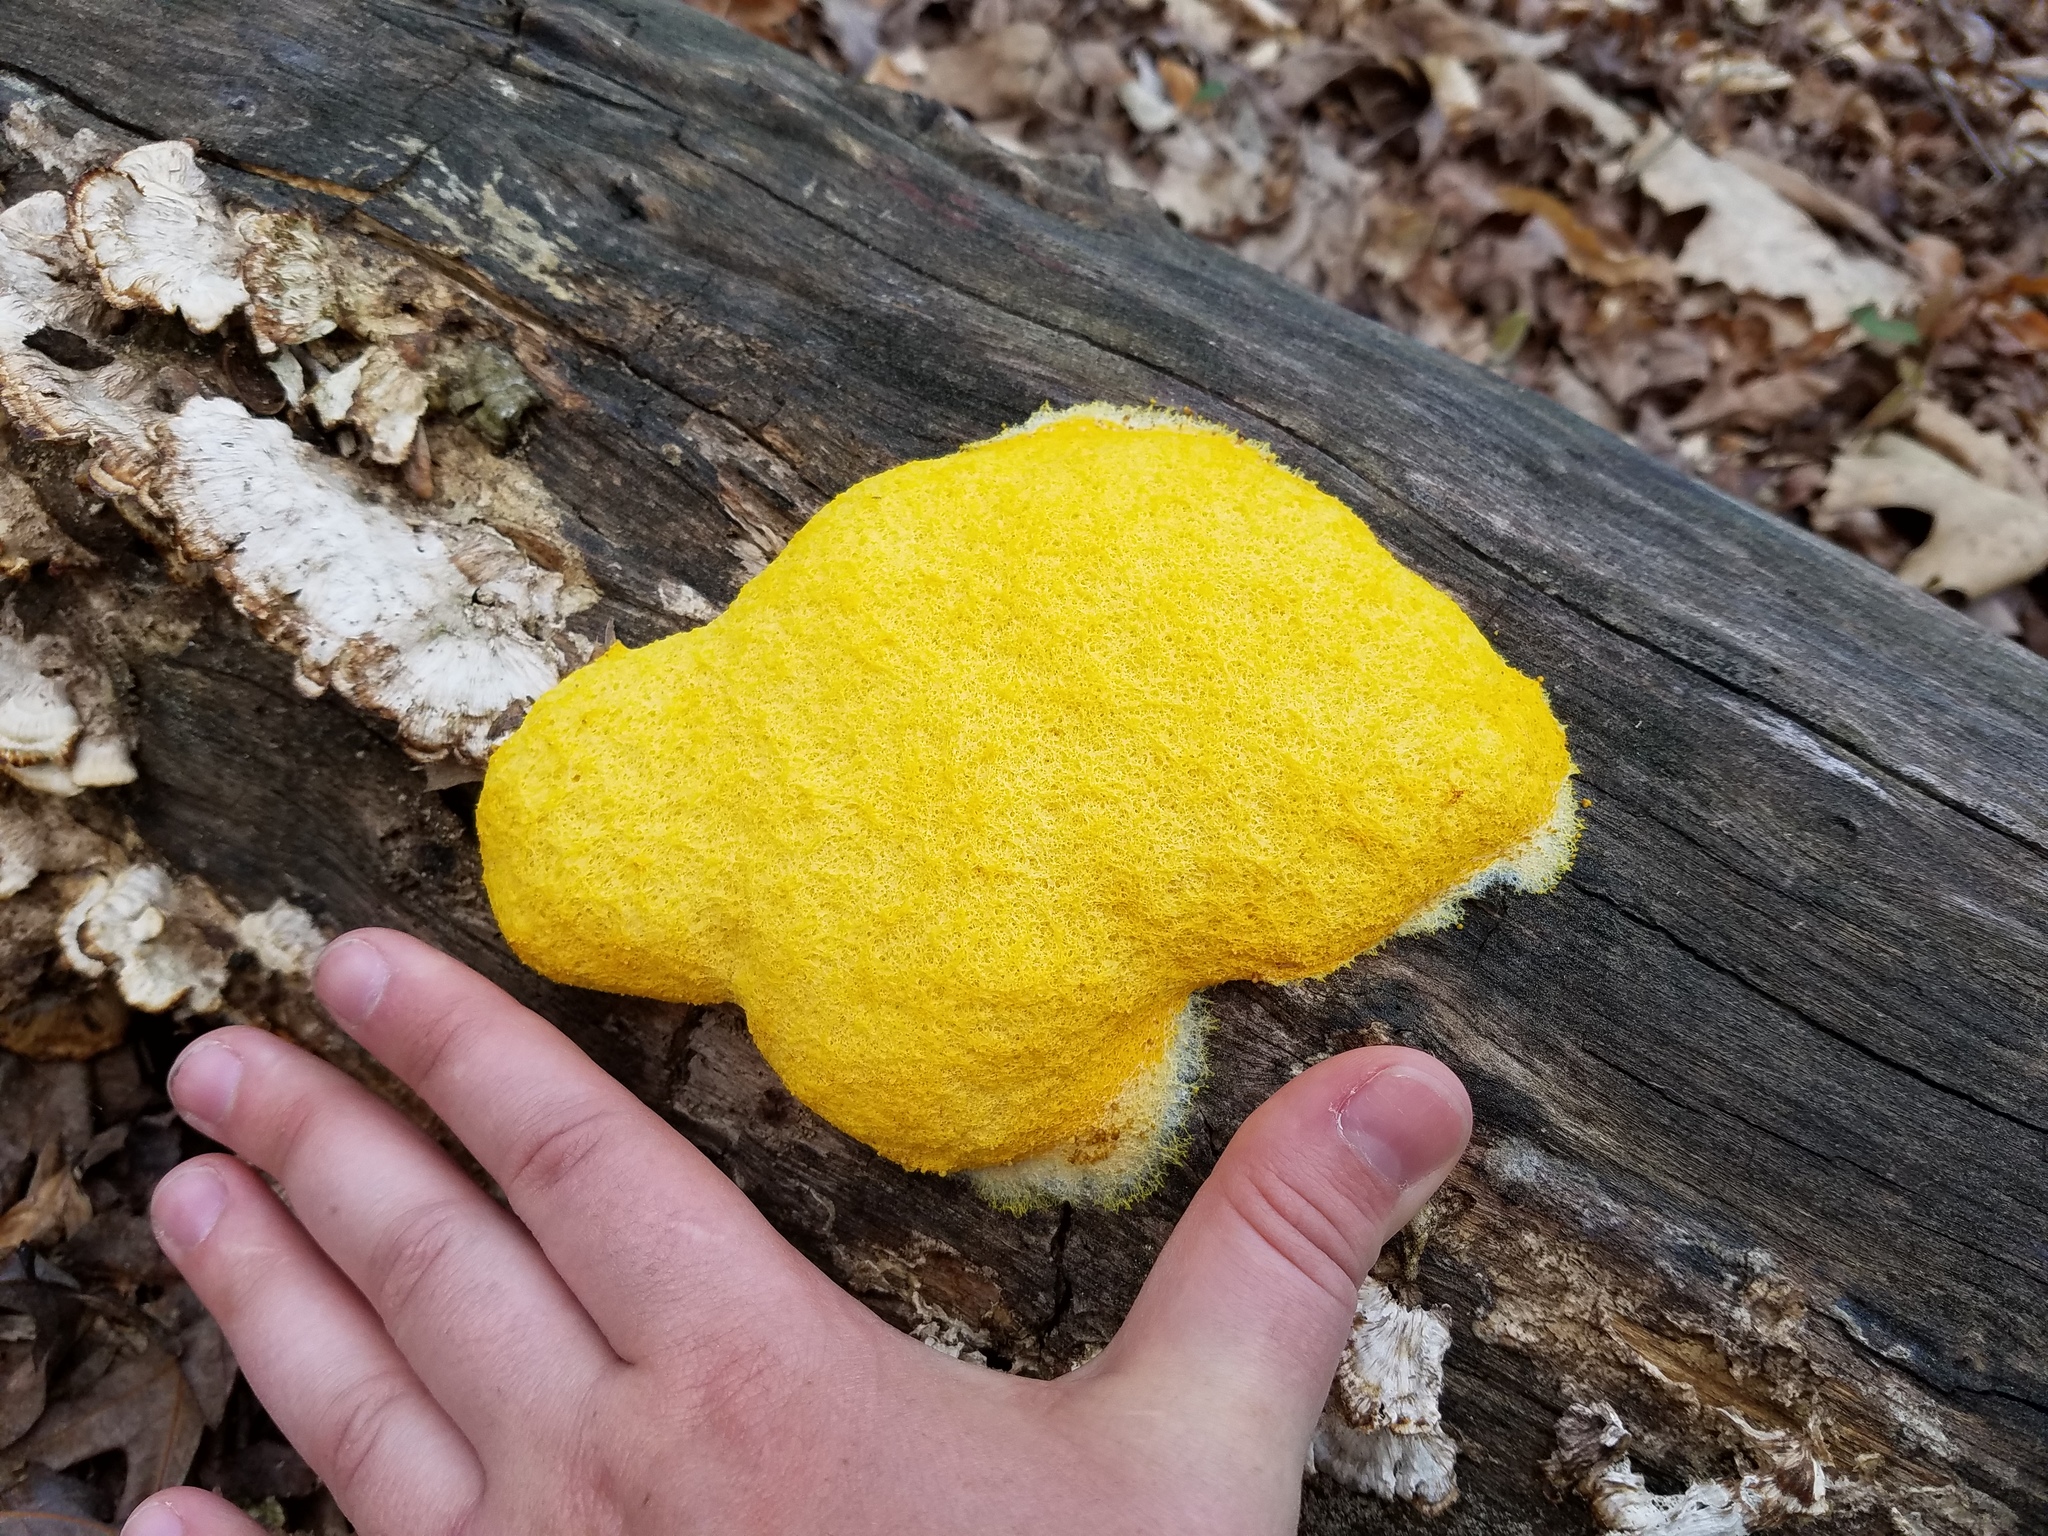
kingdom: Protozoa
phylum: Mycetozoa
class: Myxomycetes
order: Physarales
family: Physaraceae
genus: Fuligo
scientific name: Fuligo septica
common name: Dog vomit slime mold
